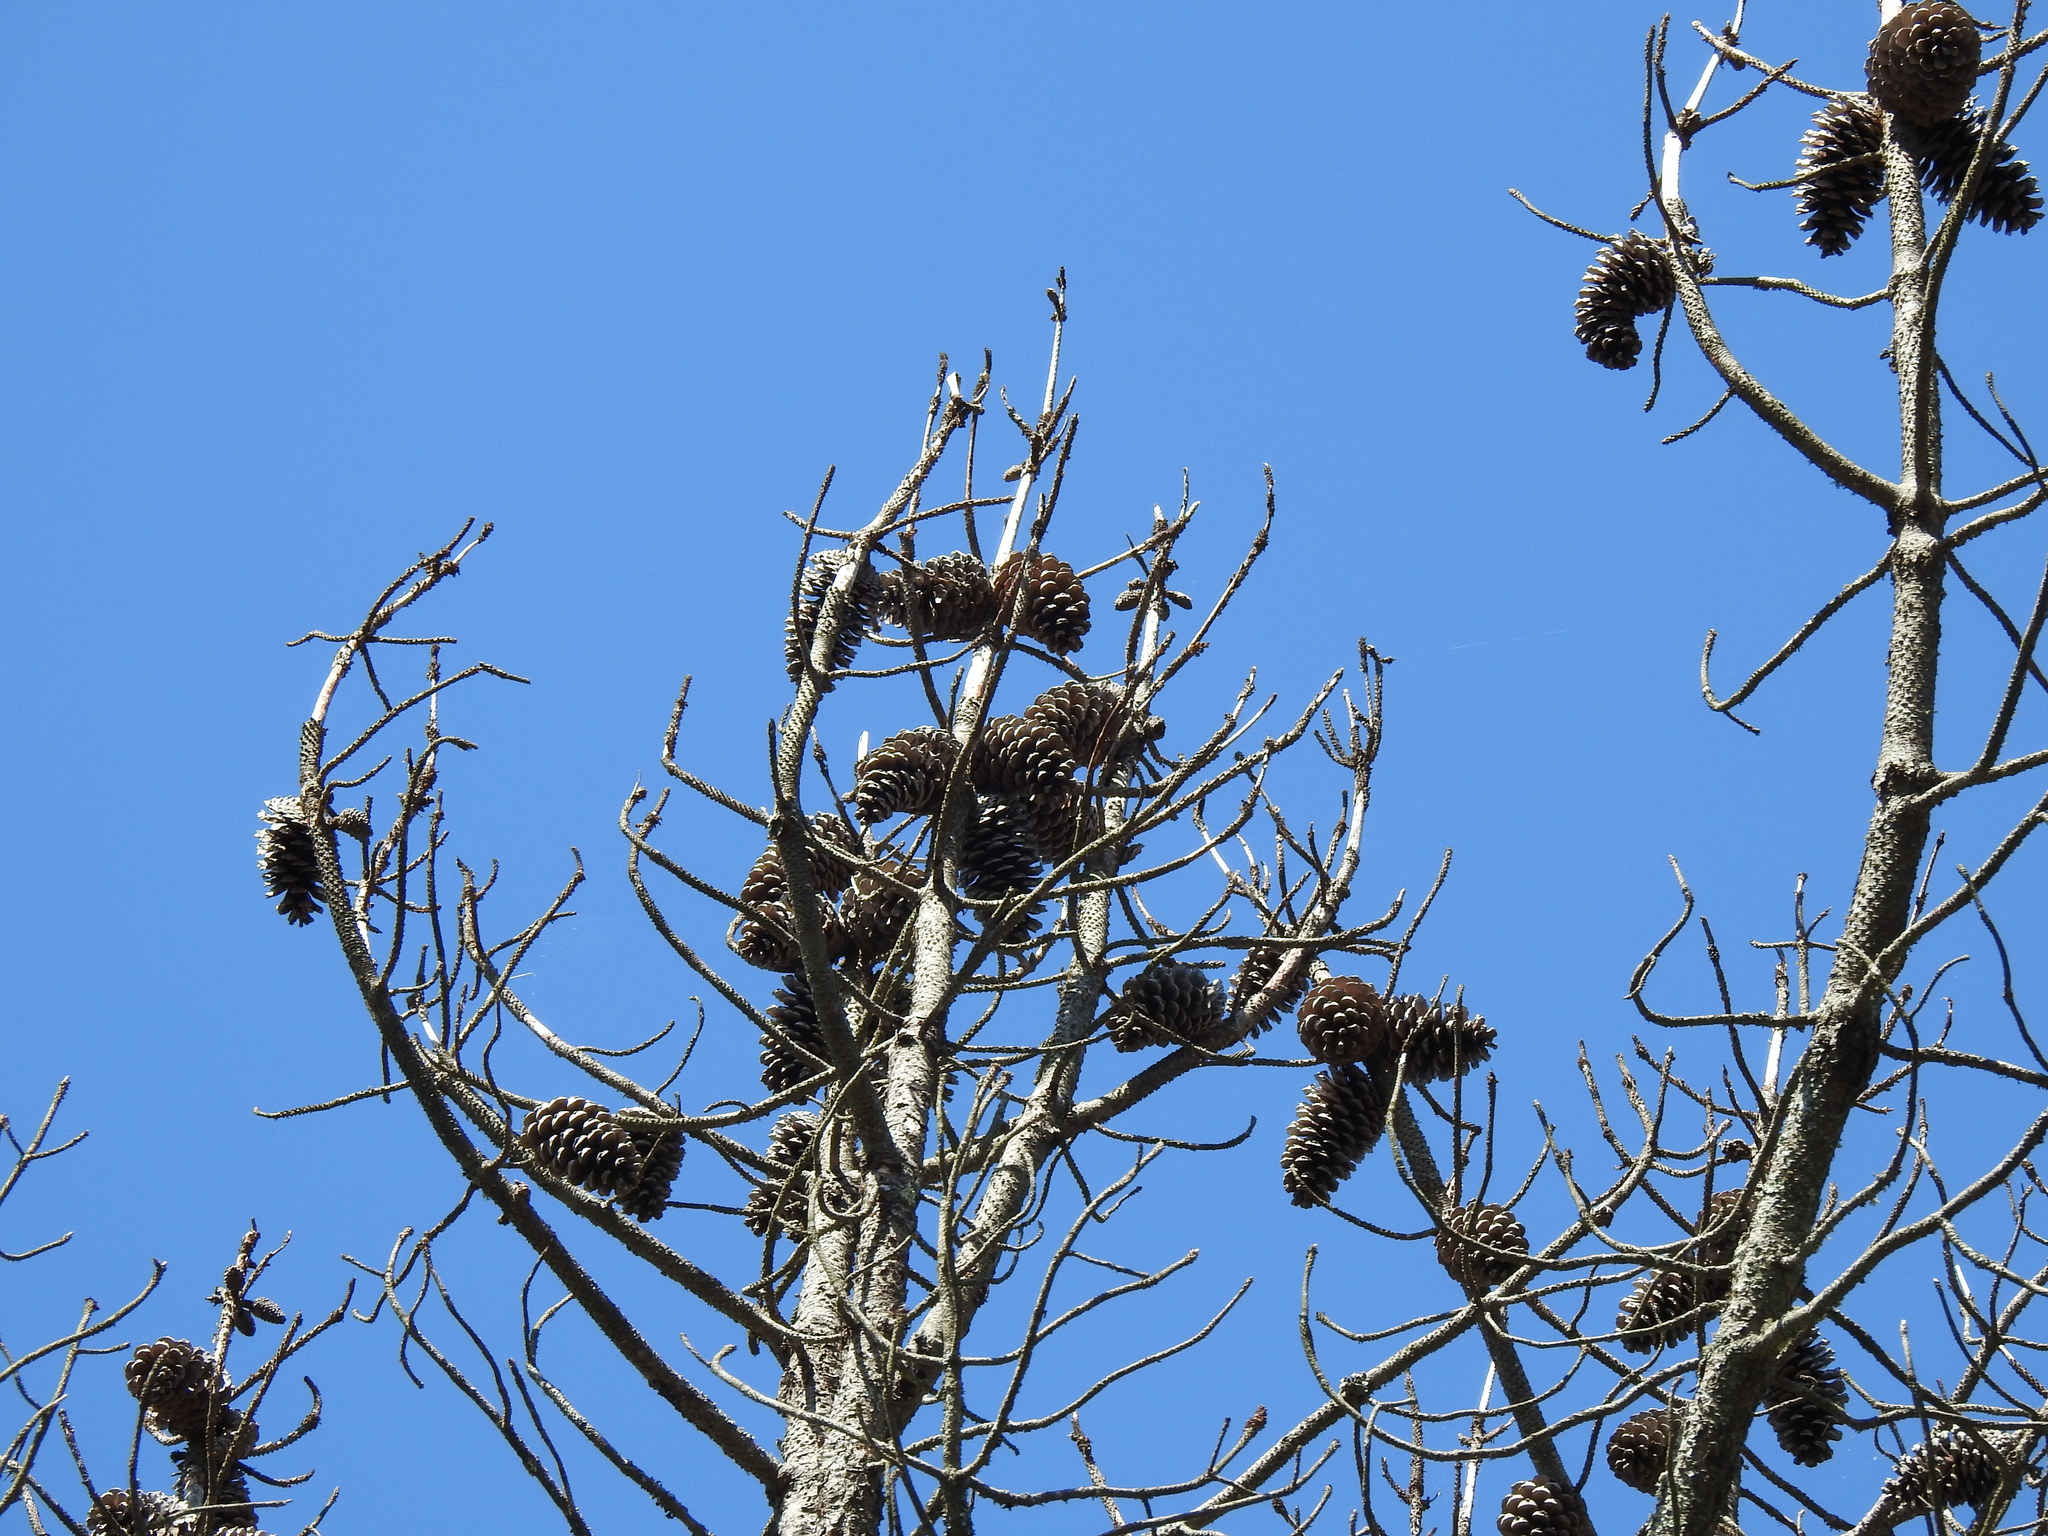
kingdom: Plantae
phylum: Tracheophyta
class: Pinopsida
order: Pinales
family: Pinaceae
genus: Pinus
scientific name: Pinus pinaster
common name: Maritime pine
